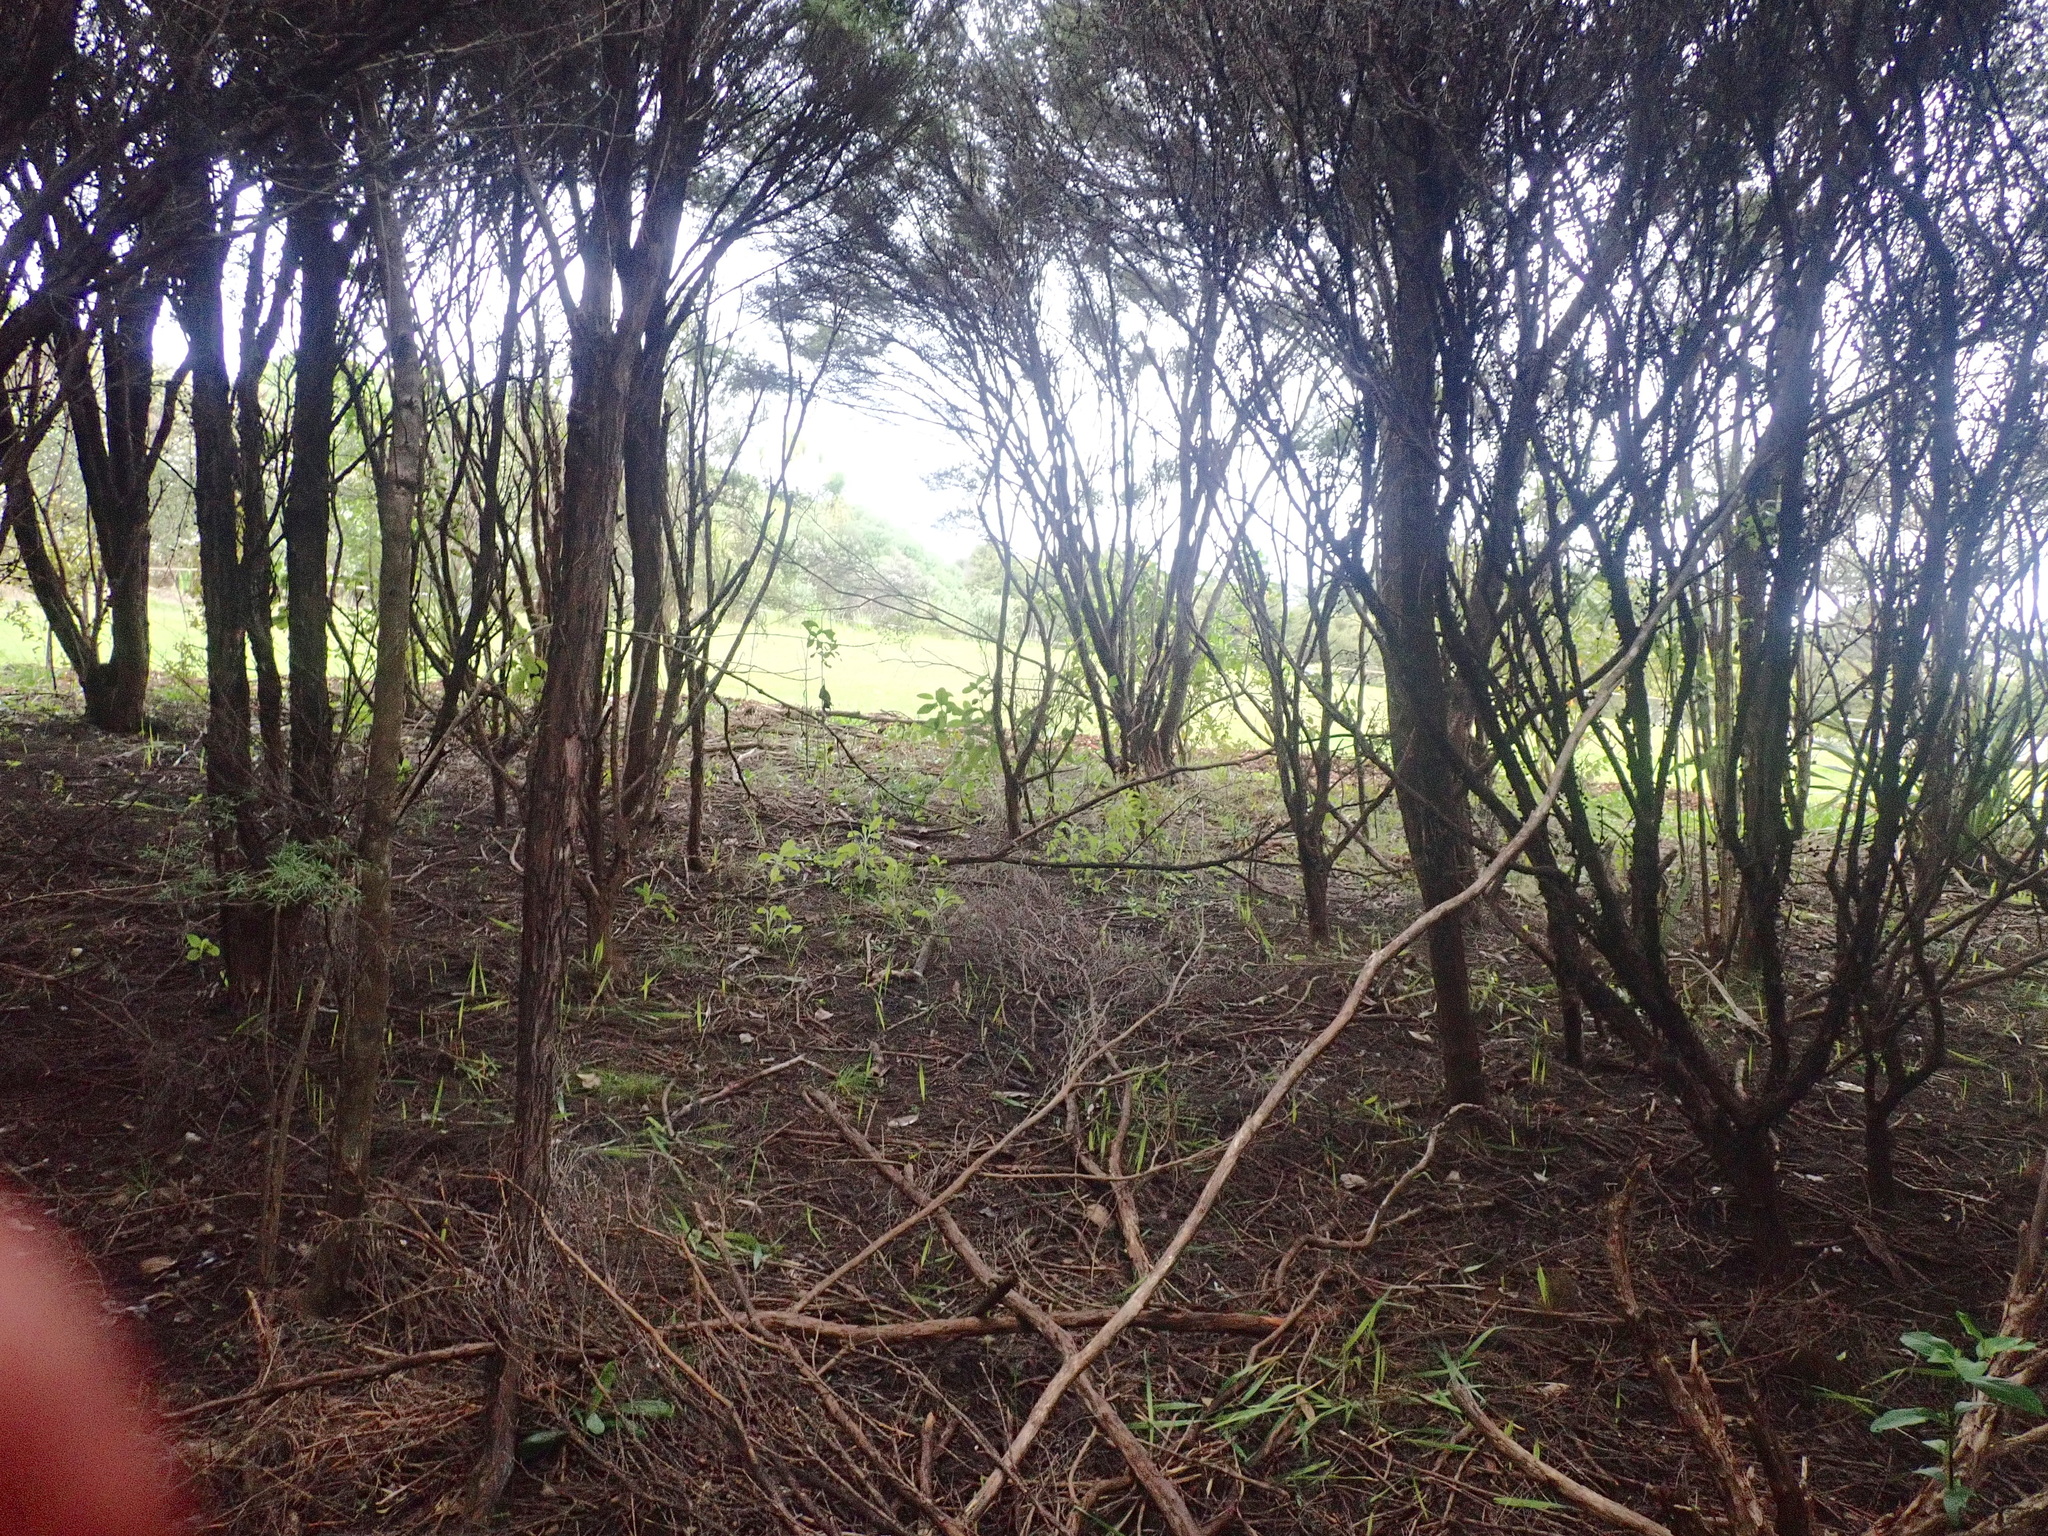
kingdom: Plantae
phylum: Tracheophyta
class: Magnoliopsida
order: Myrtales
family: Myrtaceae
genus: Leptospermum
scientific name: Leptospermum scoparium
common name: Broom tea-tree
